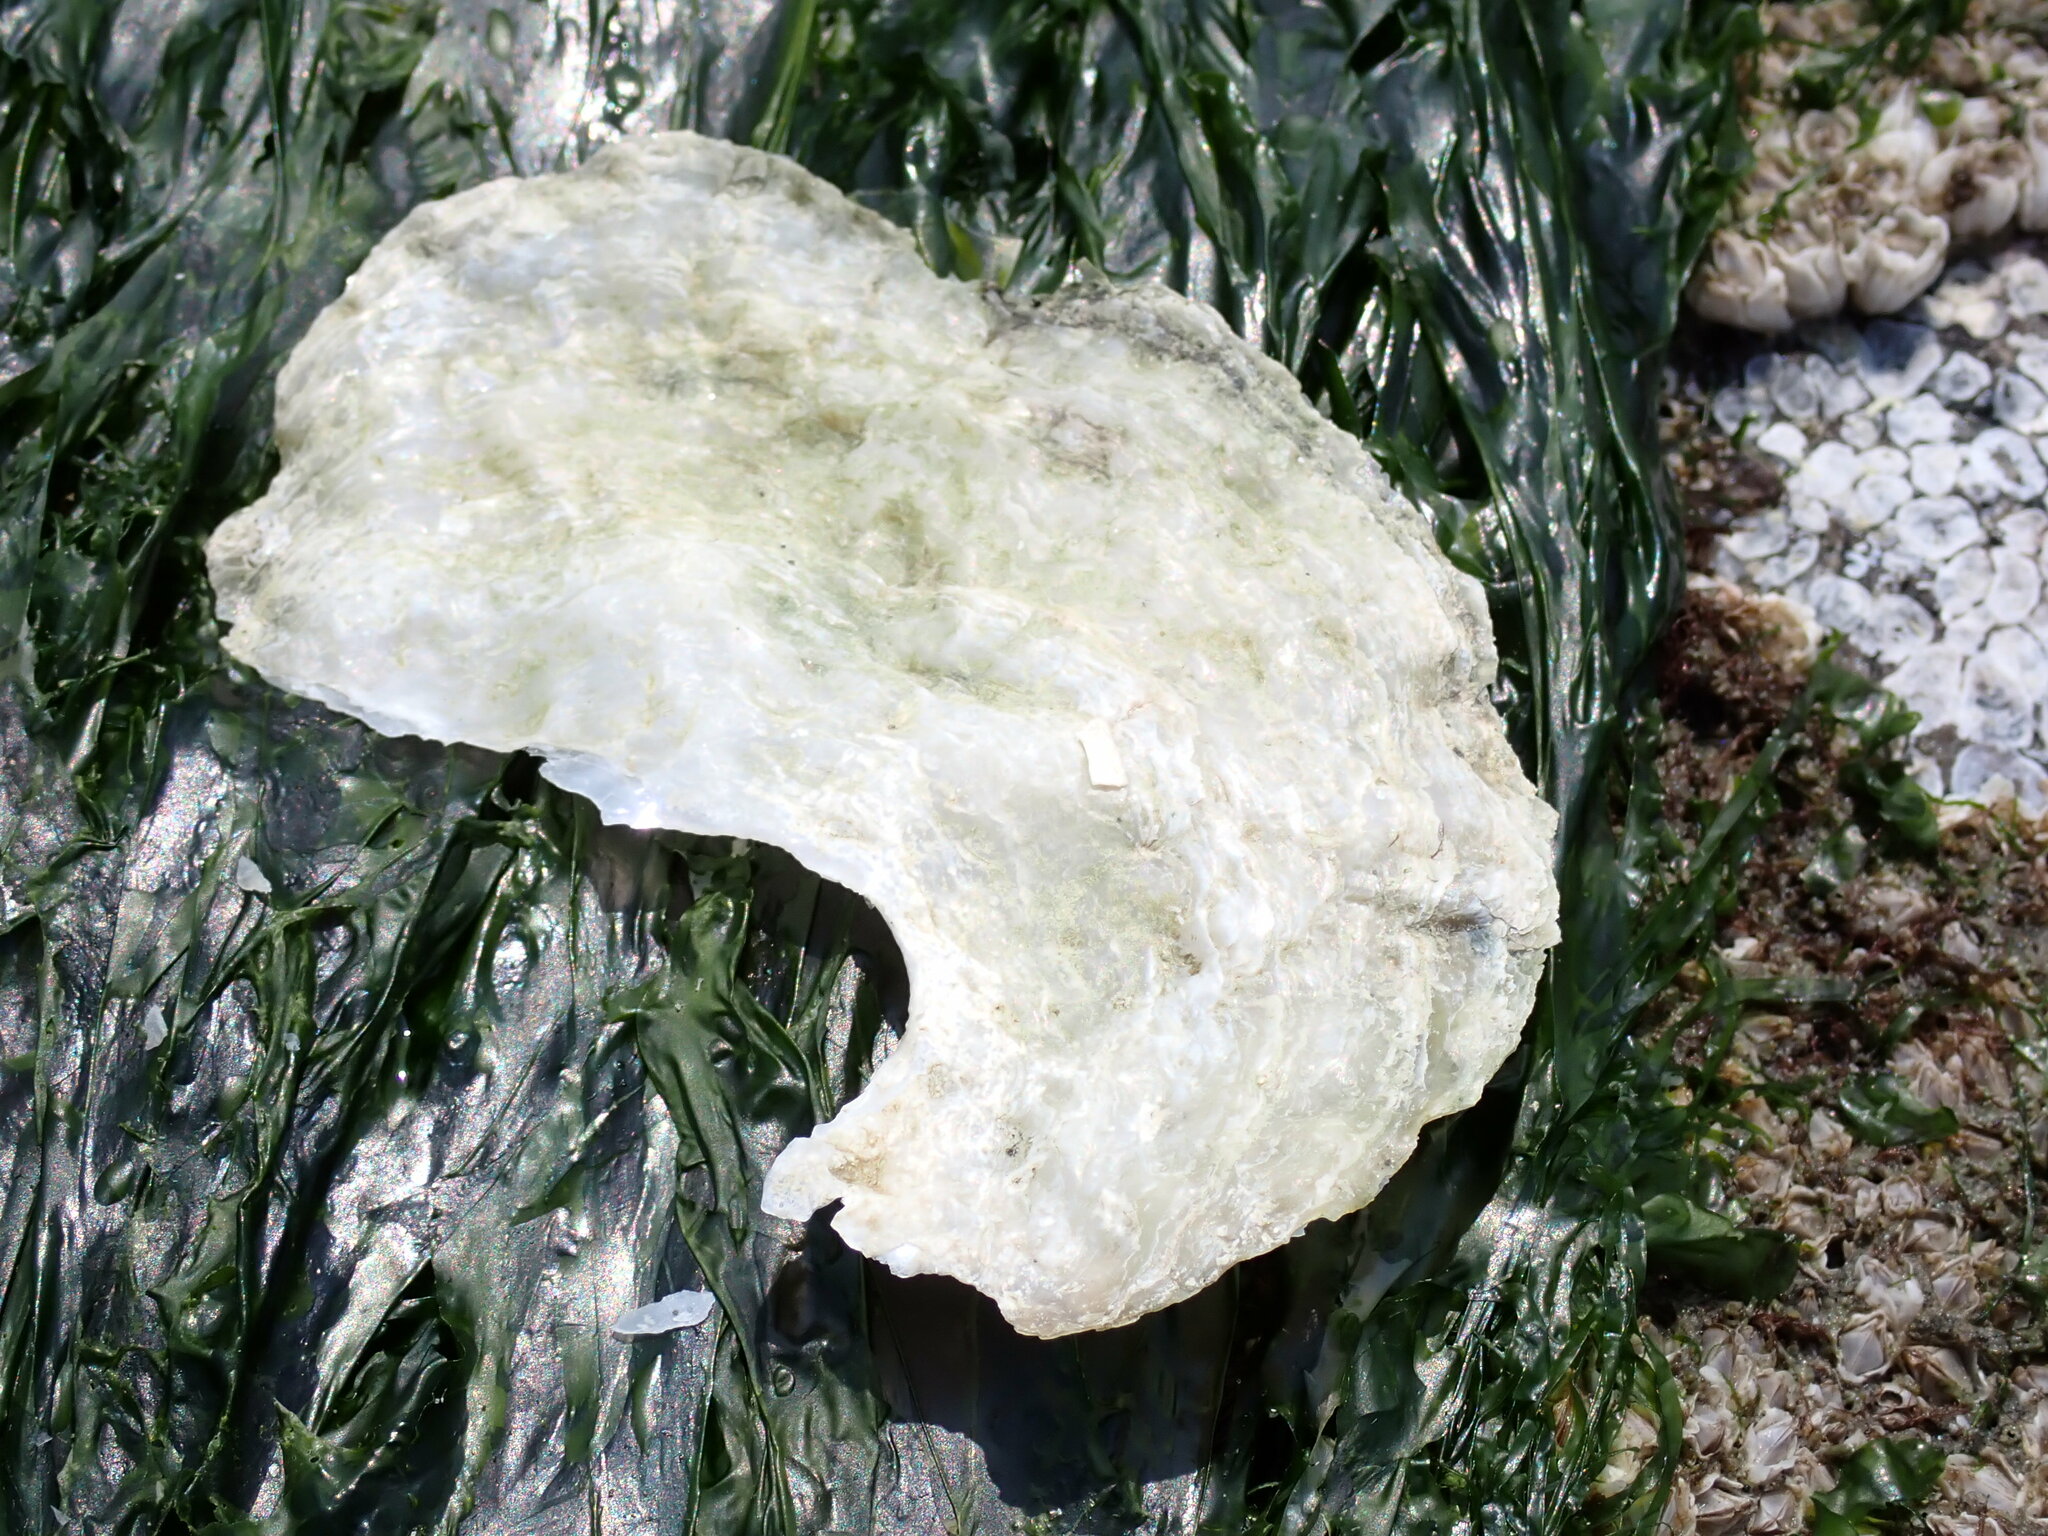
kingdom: Animalia
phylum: Mollusca
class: Bivalvia
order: Pectinida
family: Anomiidae
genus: Pododesmus
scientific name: Pododesmus macrochisma
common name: Alaska jingle
